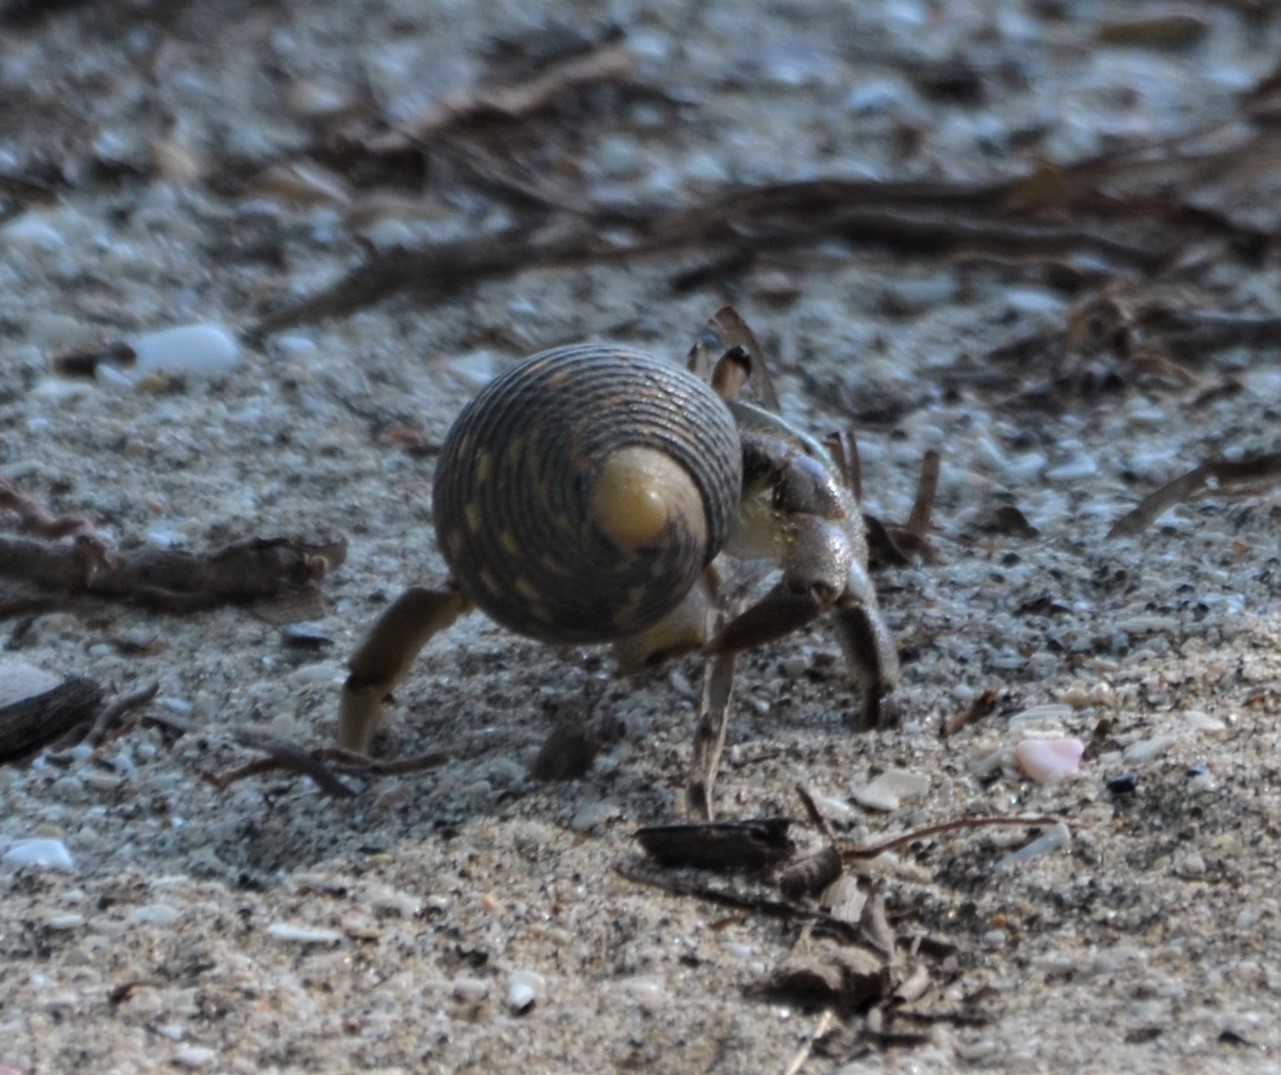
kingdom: Animalia
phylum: Arthropoda
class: Malacostraca
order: Decapoda
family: Coenobitidae
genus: Coenobita
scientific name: Coenobita compressus
